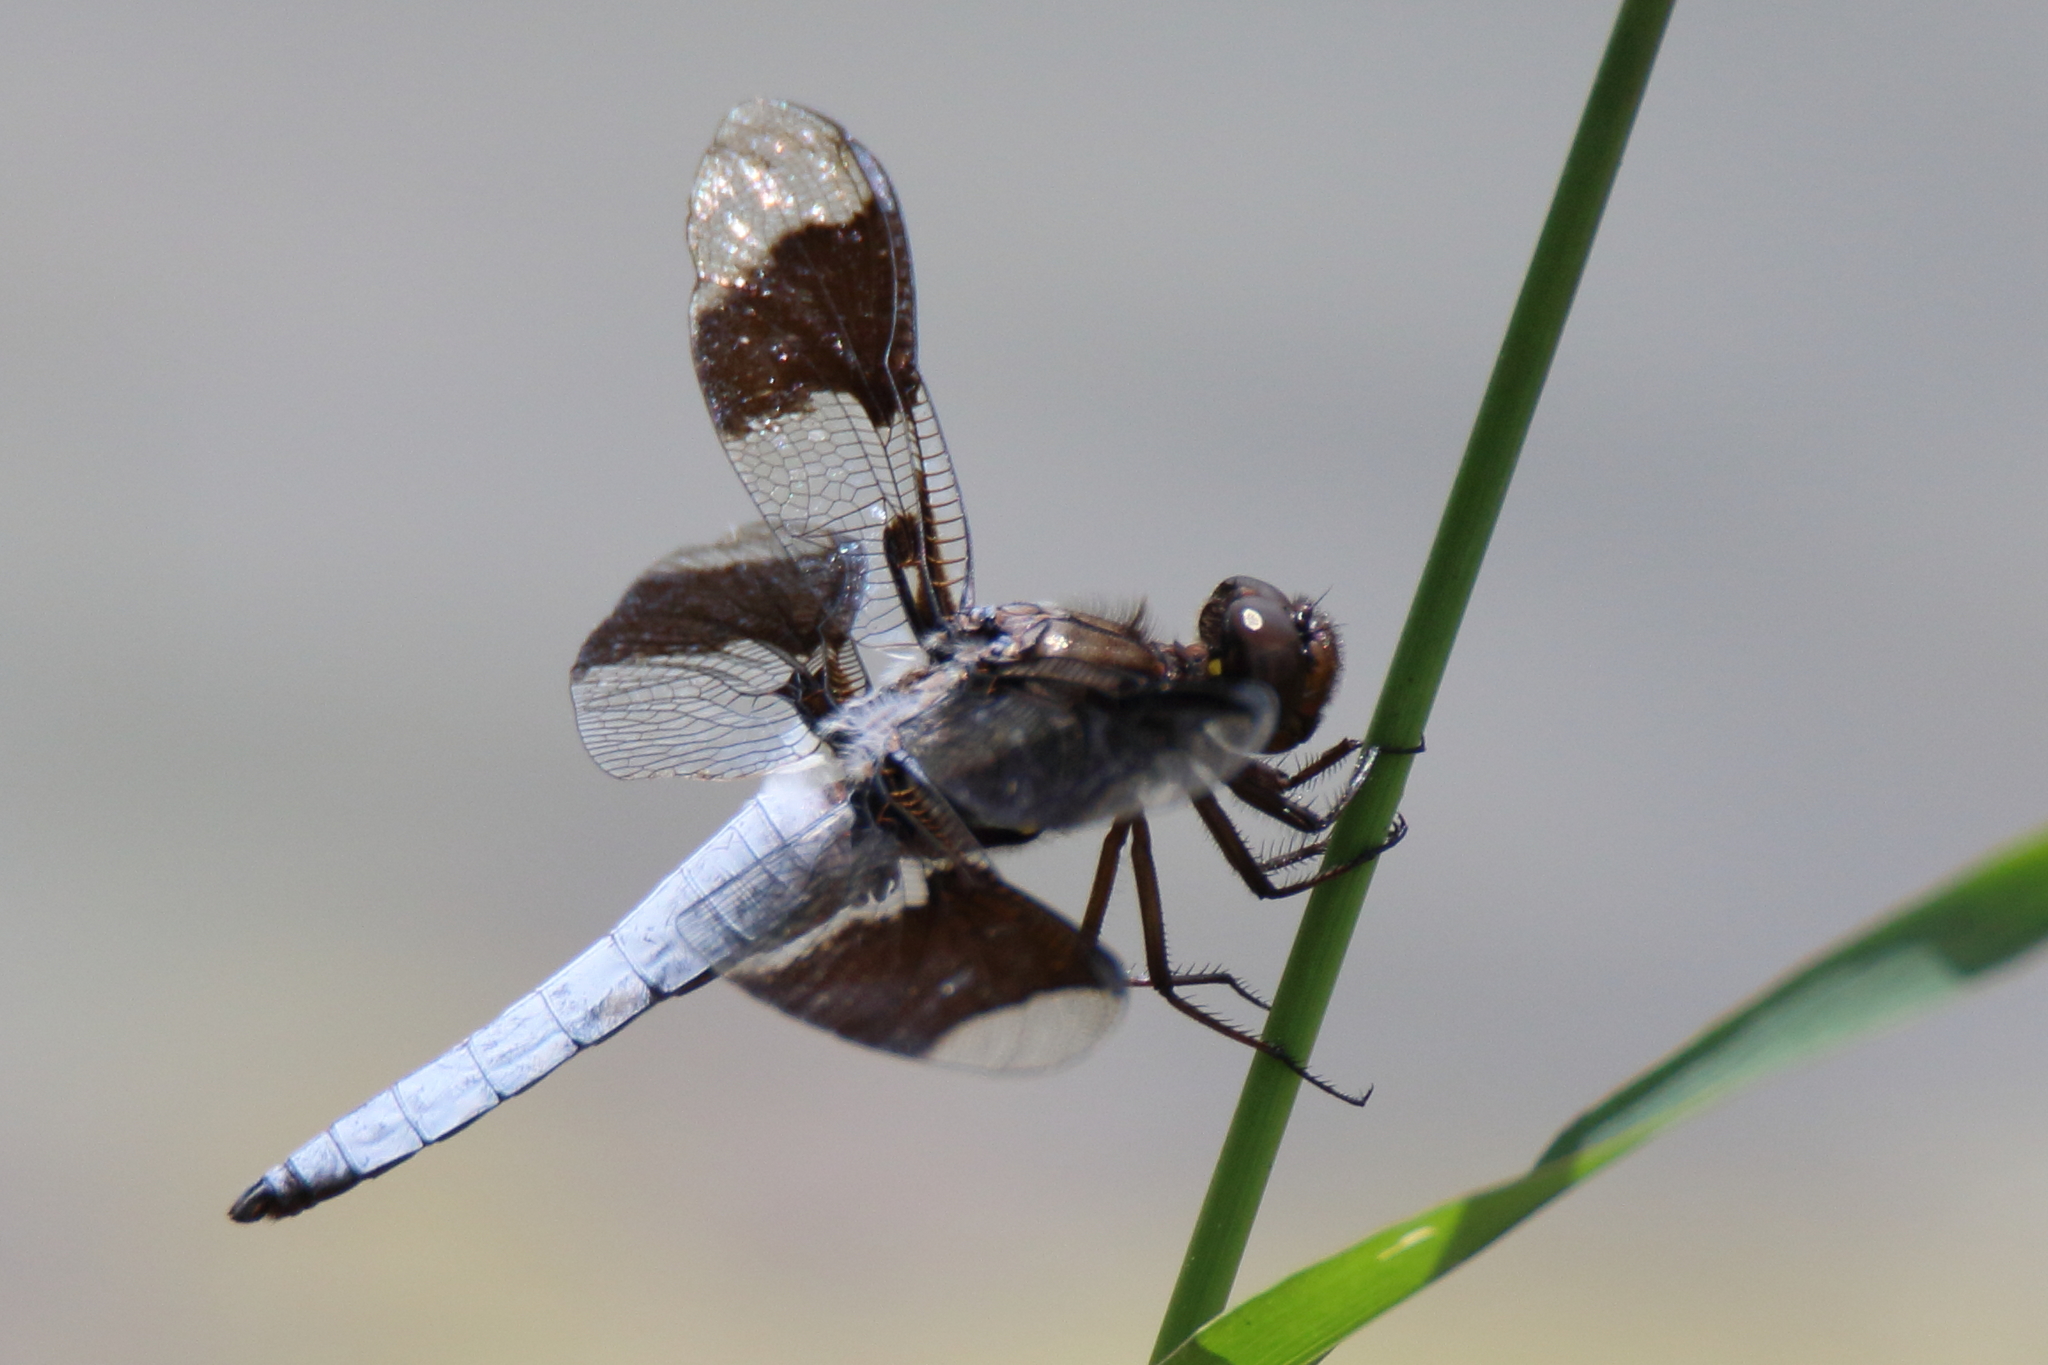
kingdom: Animalia
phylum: Arthropoda
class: Insecta
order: Odonata
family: Libellulidae
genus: Plathemis
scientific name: Plathemis lydia
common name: Common whitetail
